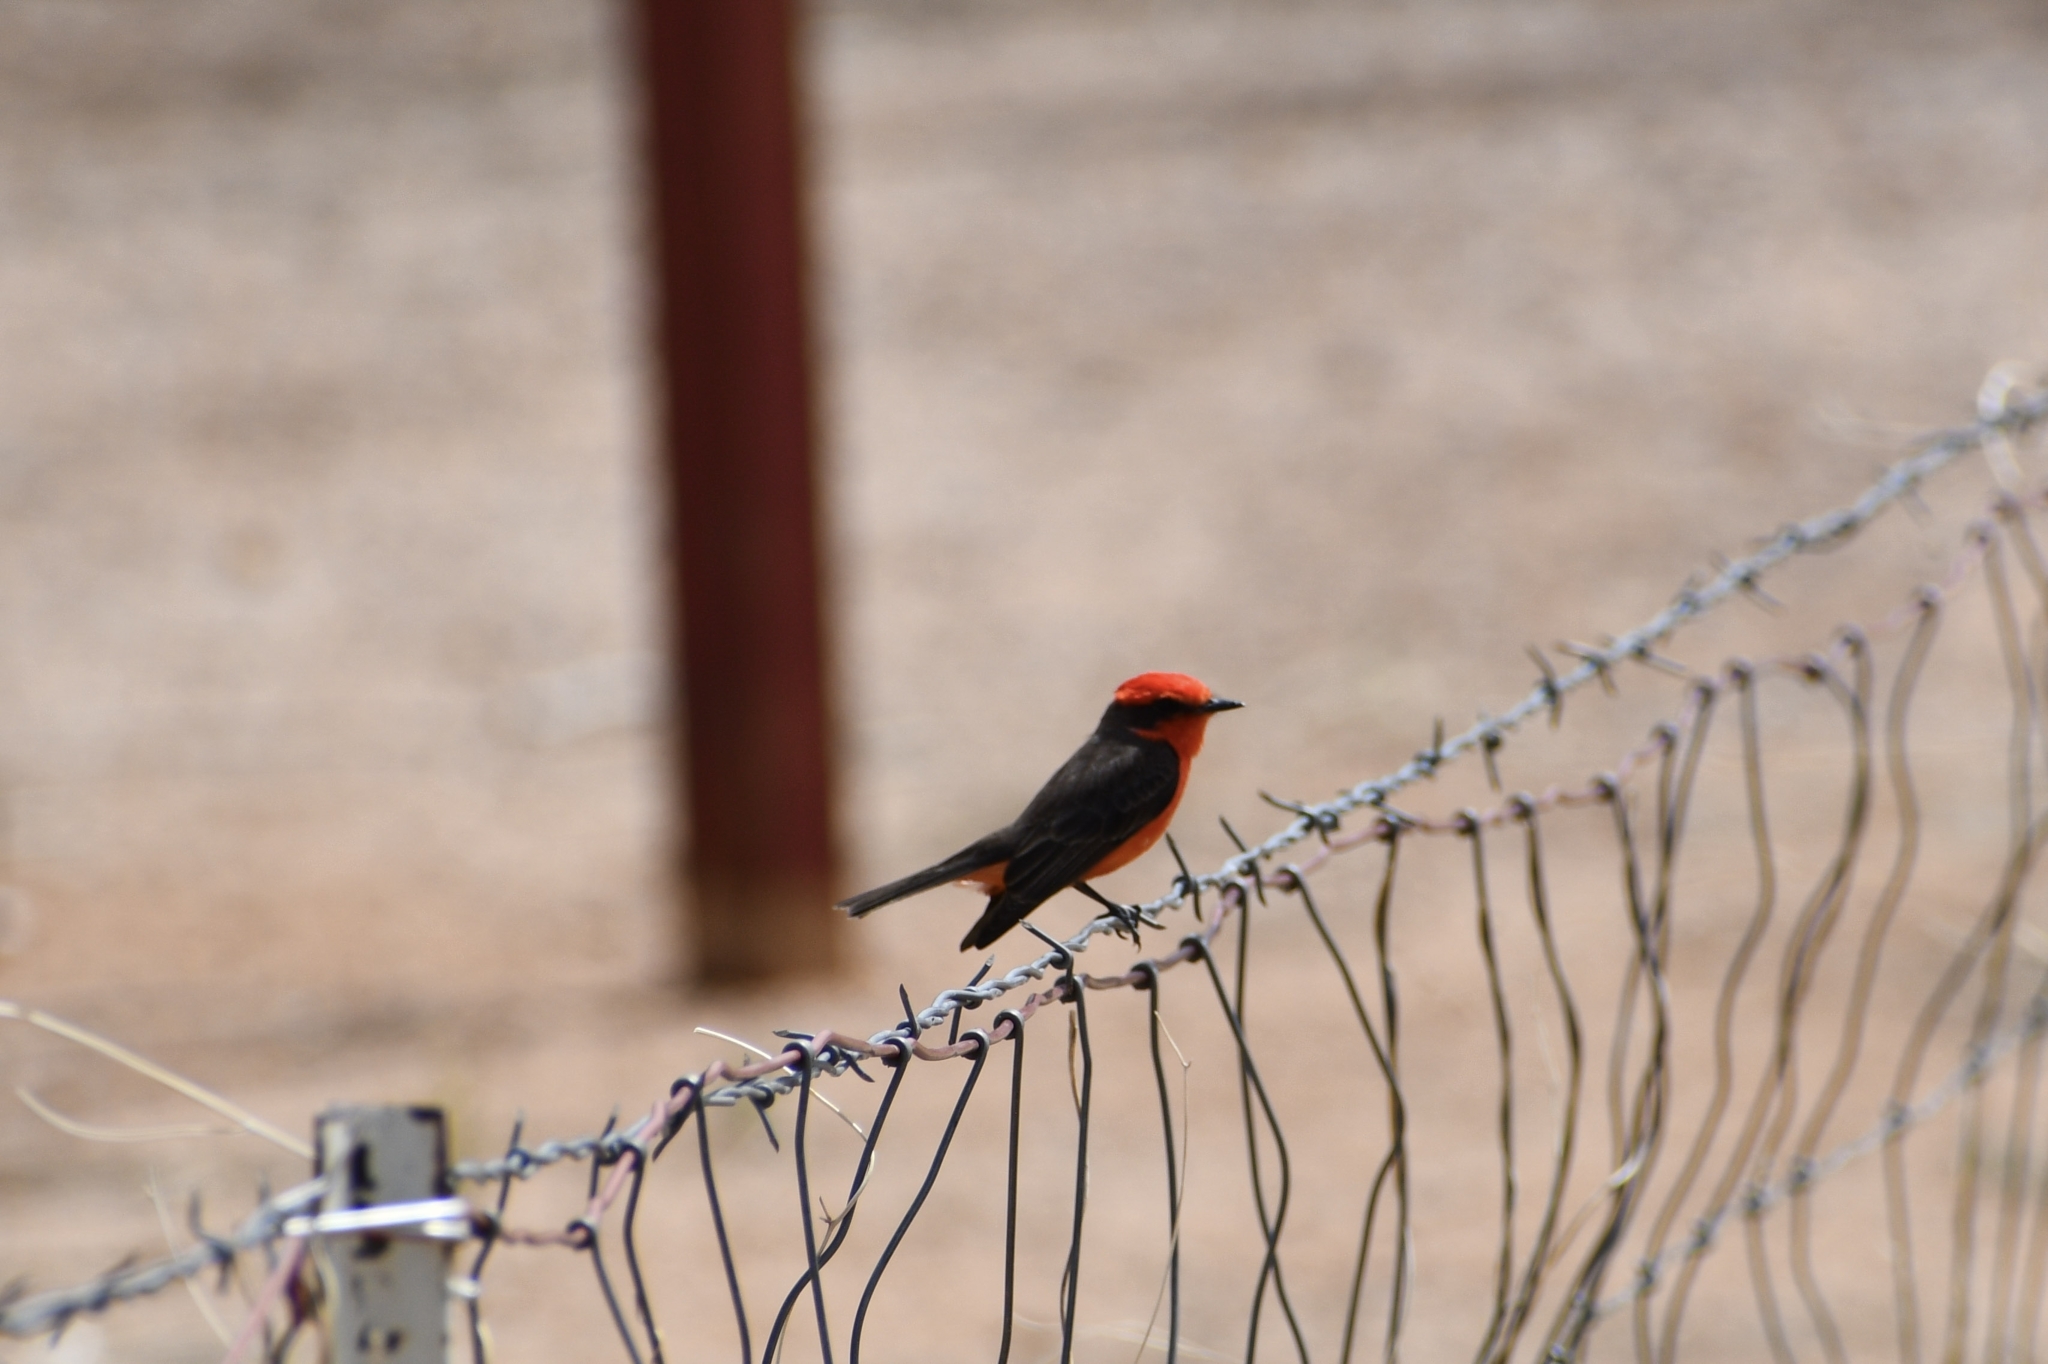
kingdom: Animalia
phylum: Chordata
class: Aves
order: Passeriformes
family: Tyrannidae
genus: Pyrocephalus
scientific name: Pyrocephalus rubinus
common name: Vermilion flycatcher
